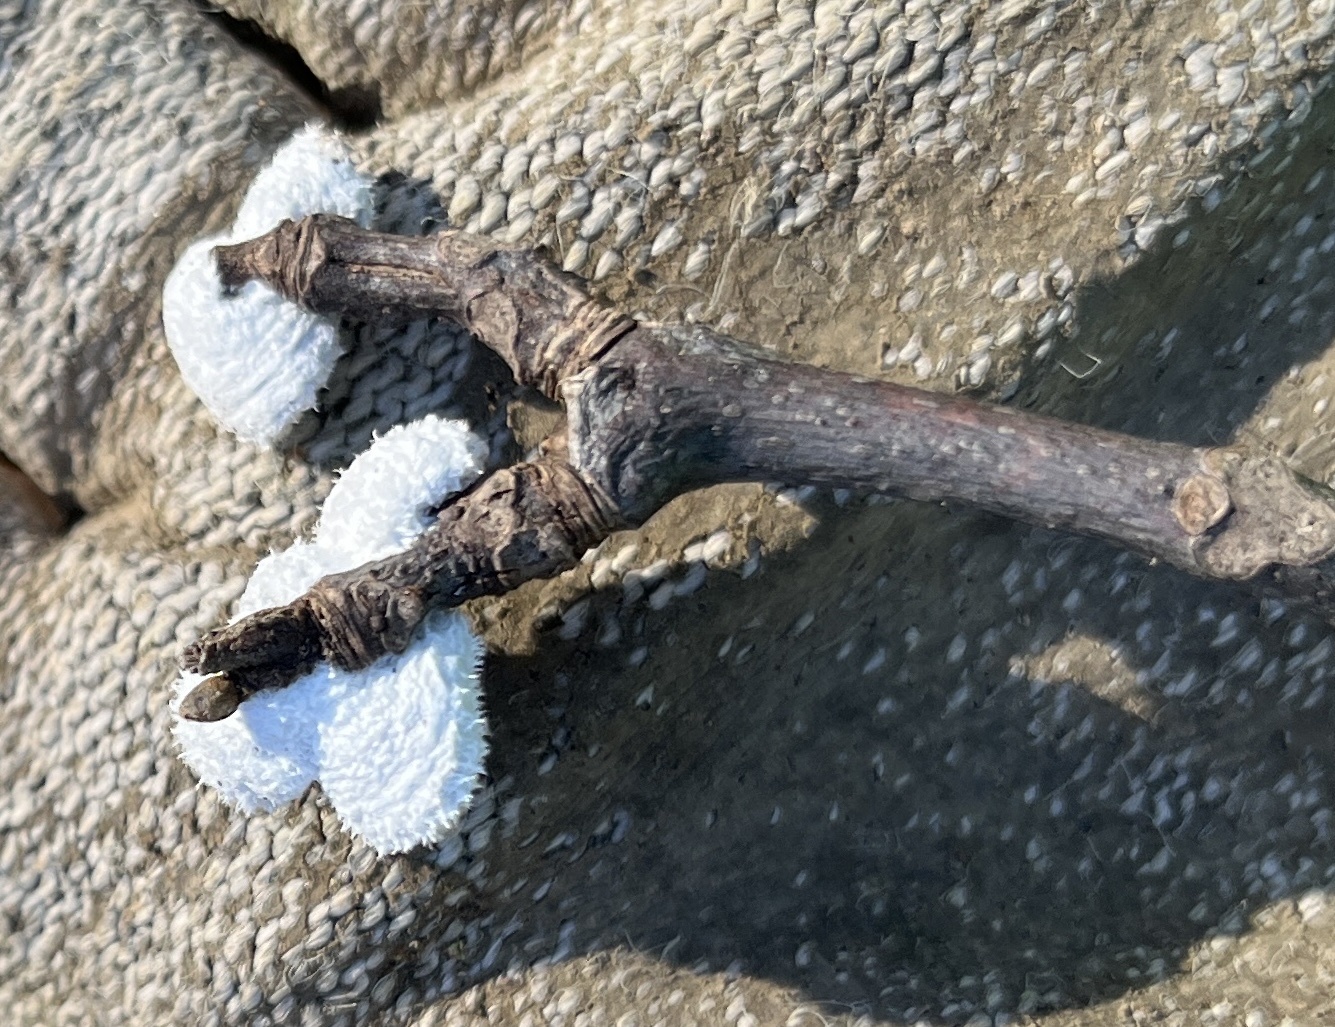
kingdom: Fungi
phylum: Basidiomycota
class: Agaricomycetes
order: Agaricales
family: Schizophyllaceae
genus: Schizophyllum
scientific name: Schizophyllum commune
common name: Common porecrust
